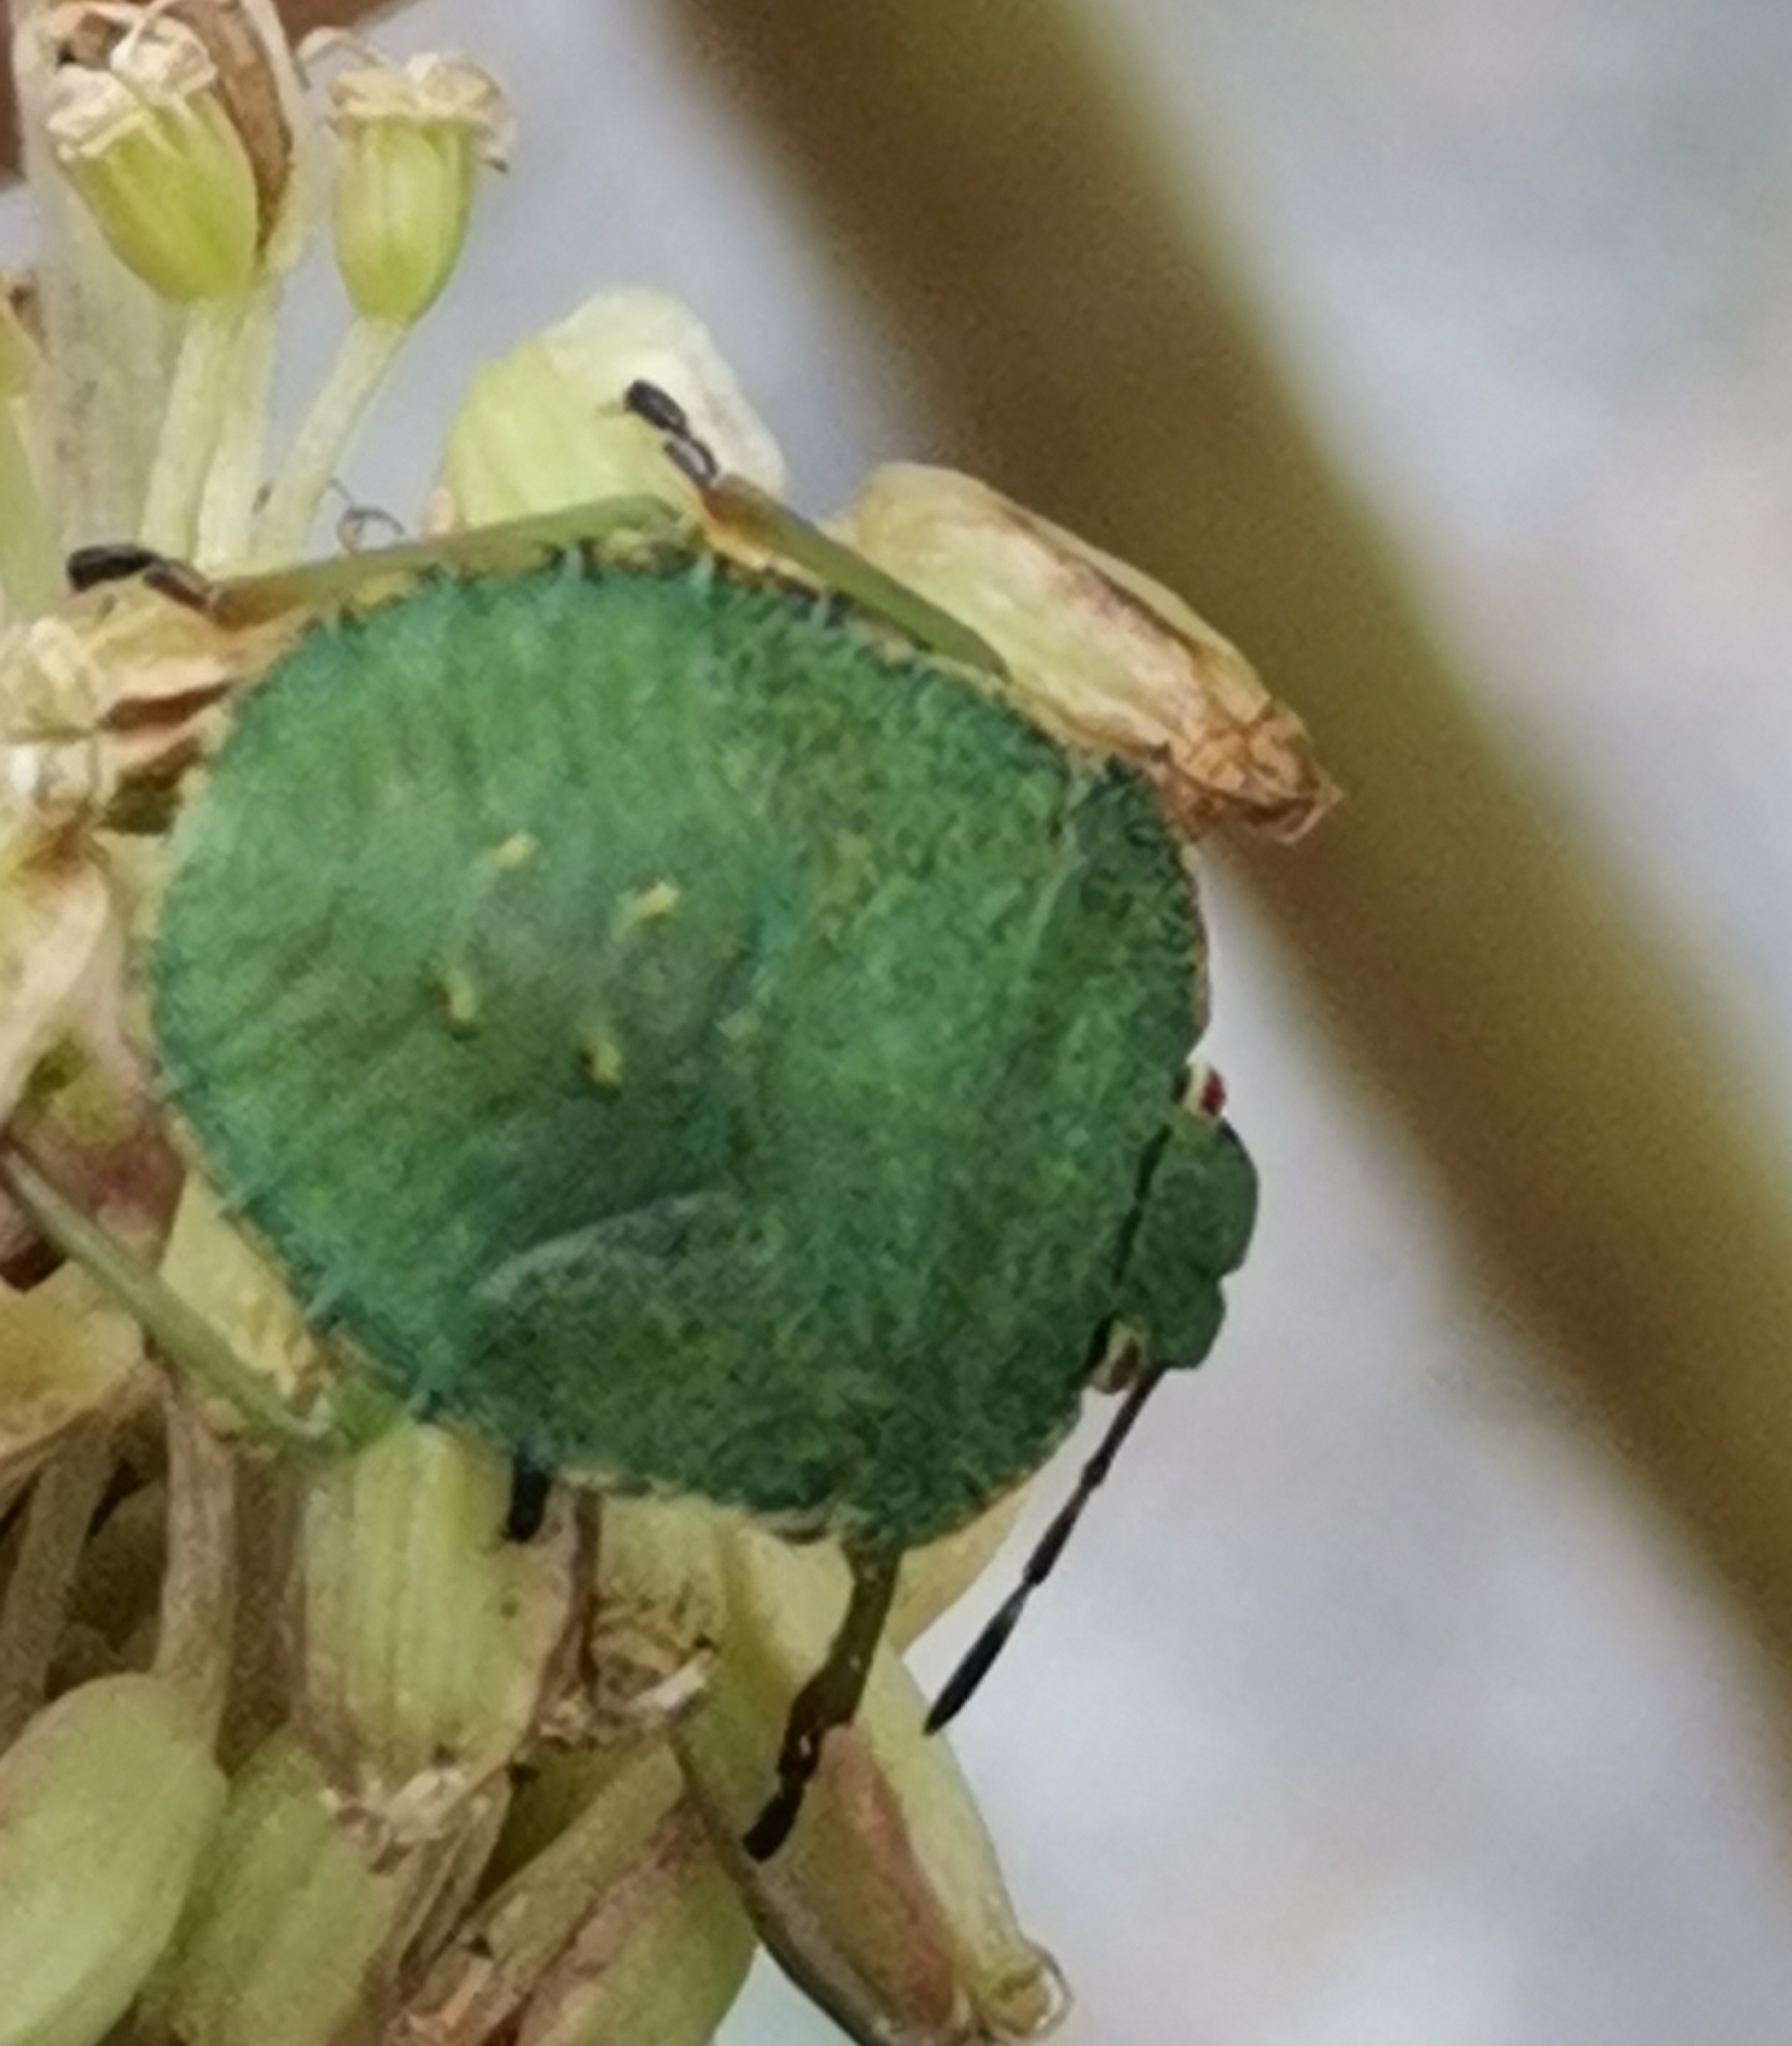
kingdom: Animalia
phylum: Arthropoda
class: Insecta
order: Hemiptera
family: Pentatomidae
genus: Palomena
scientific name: Palomena prasina
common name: Green shieldbug
